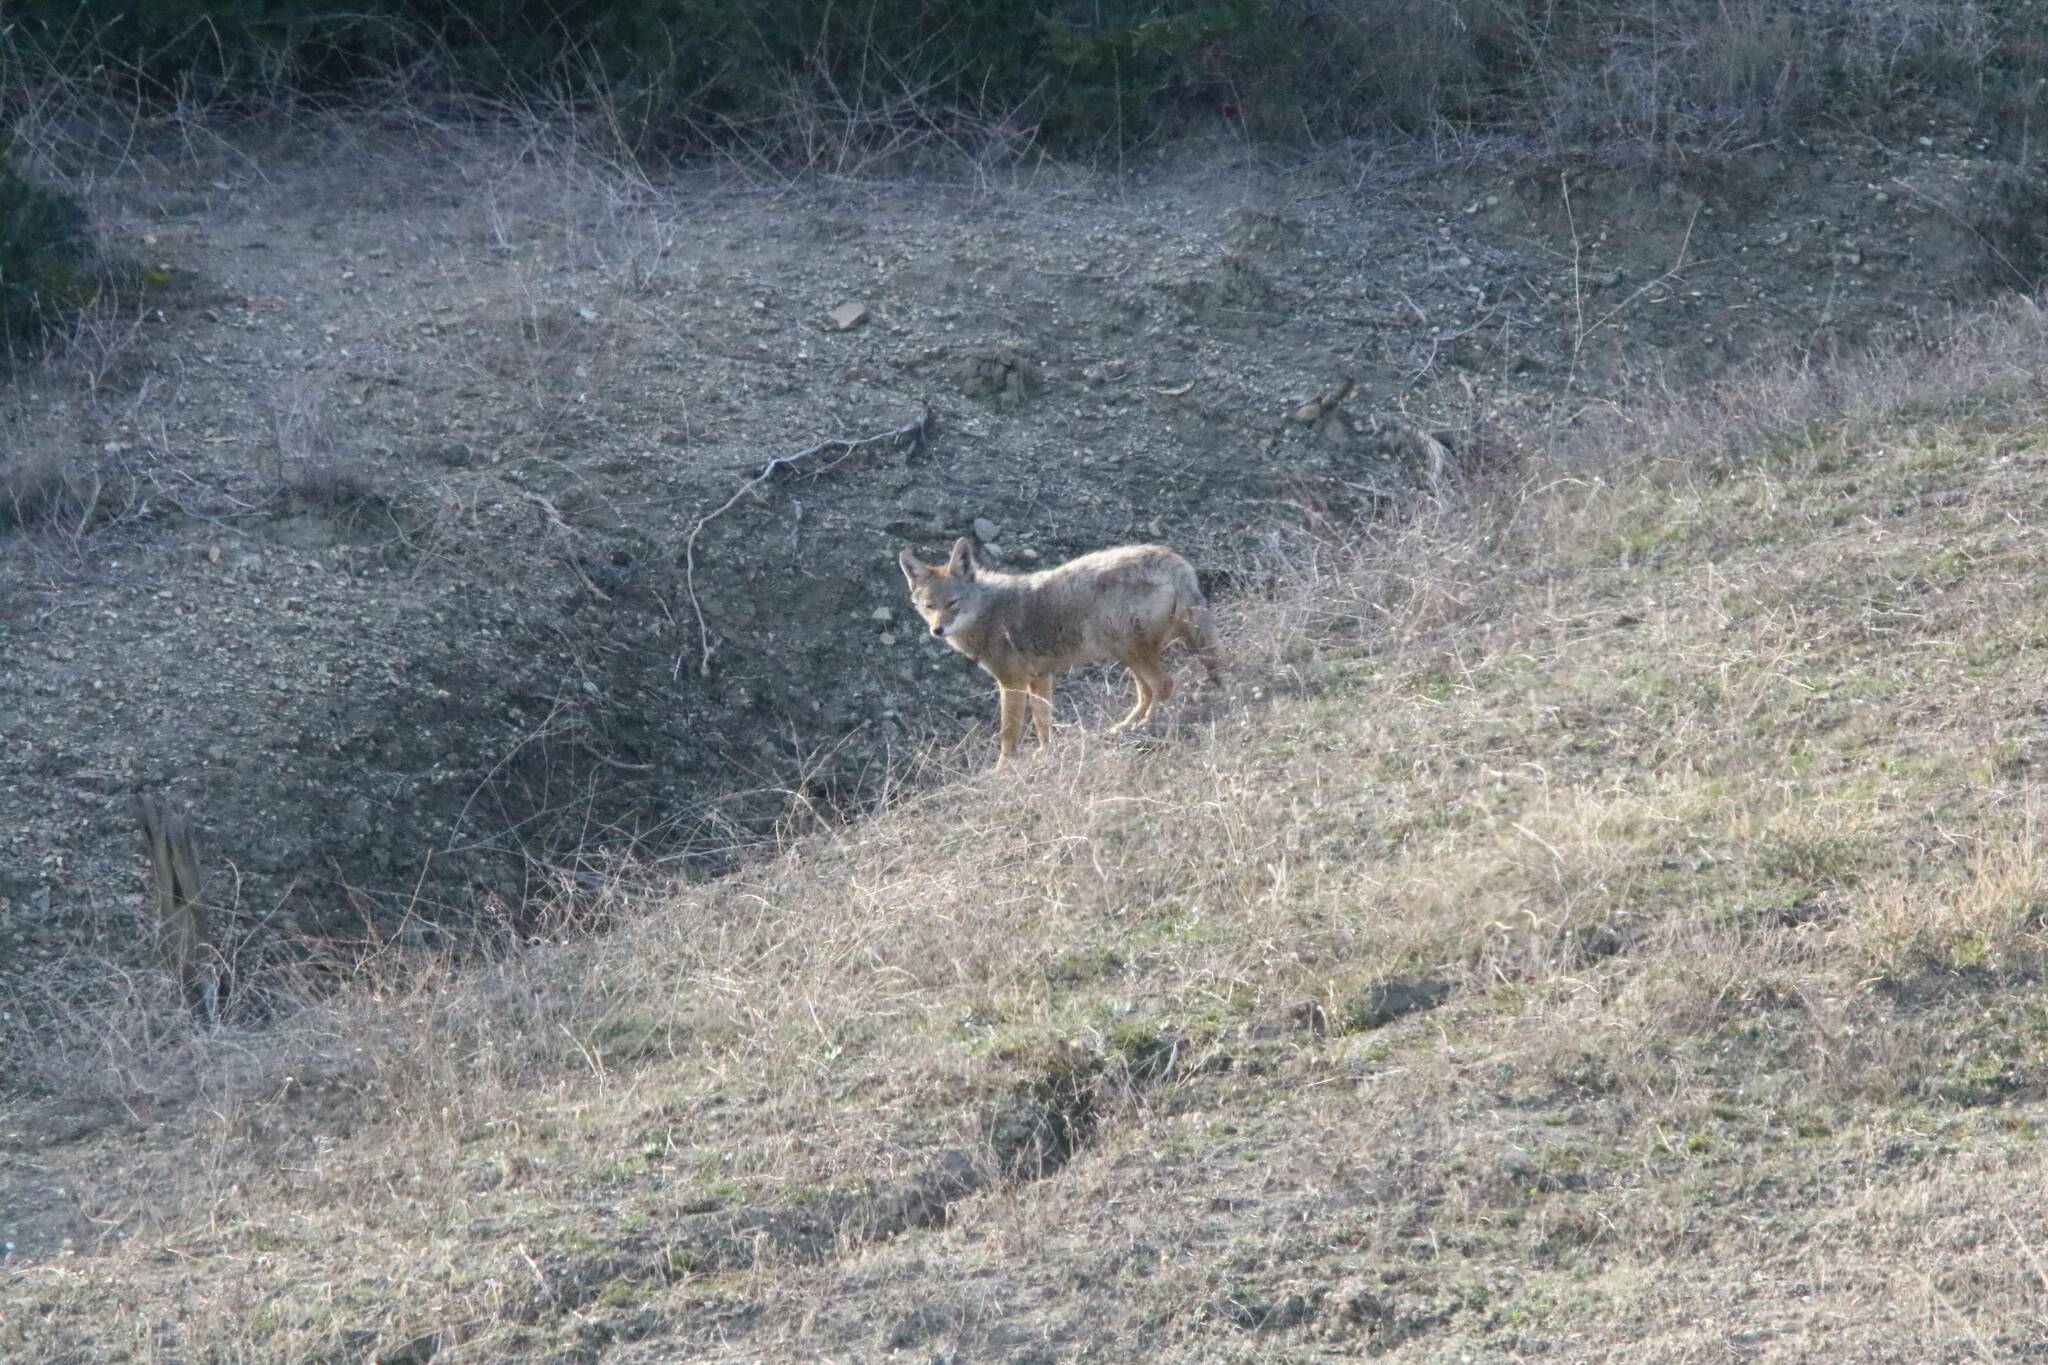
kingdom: Animalia
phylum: Chordata
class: Mammalia
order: Carnivora
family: Canidae
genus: Canis
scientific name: Canis lupaster
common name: African golden wolf
